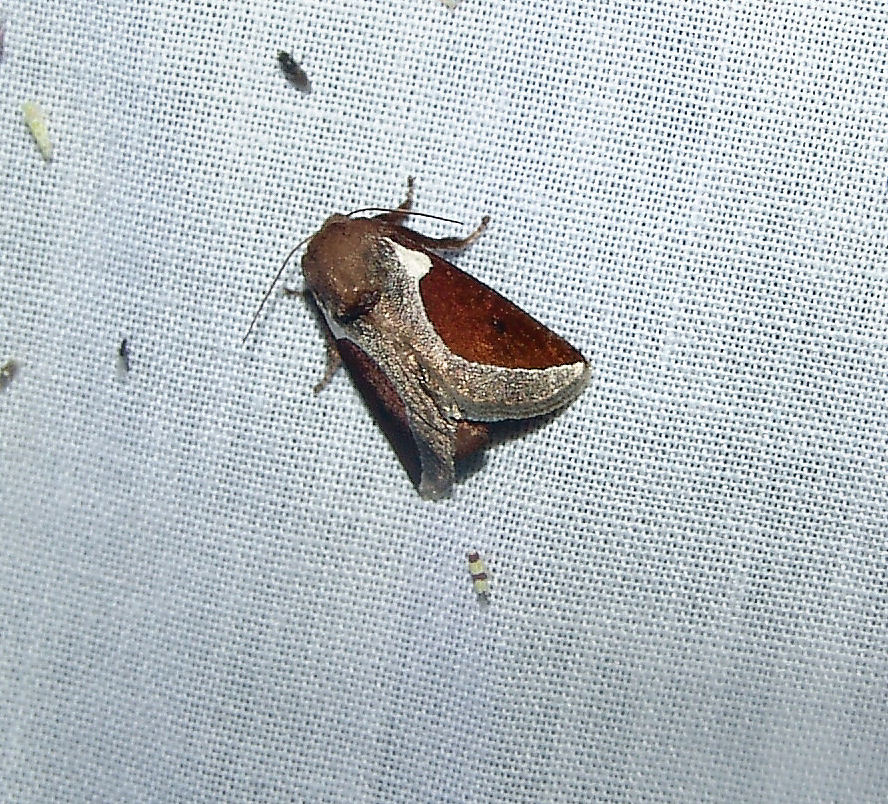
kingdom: Animalia
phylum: Arthropoda
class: Insecta
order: Lepidoptera
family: Limacodidae
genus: Prolimacodes
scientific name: Prolimacodes badia
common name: Skiff moth
